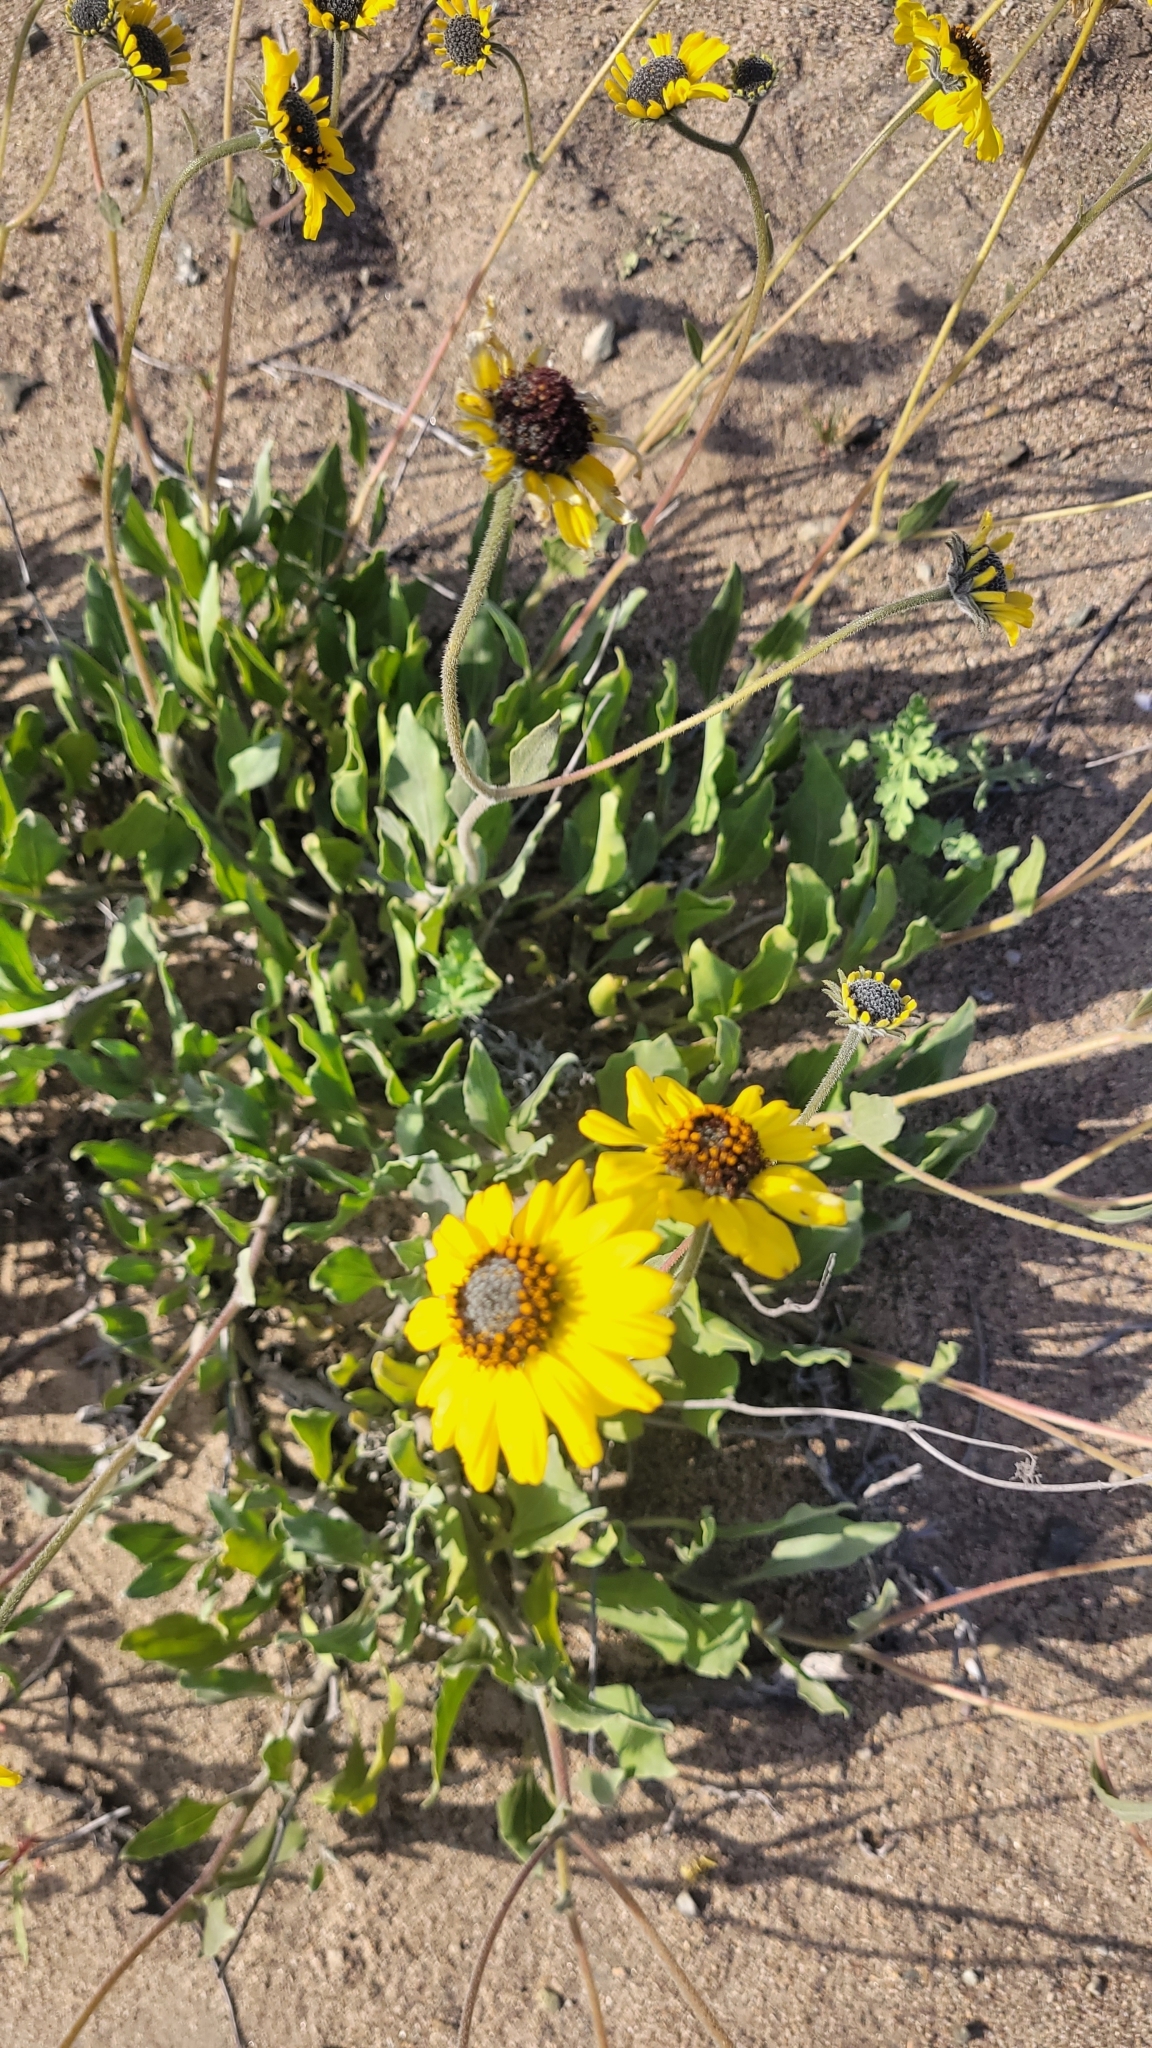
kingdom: Plantae
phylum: Tracheophyta
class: Magnoliopsida
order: Asterales
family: Asteraceae
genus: Encelia
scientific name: Encelia canescens
